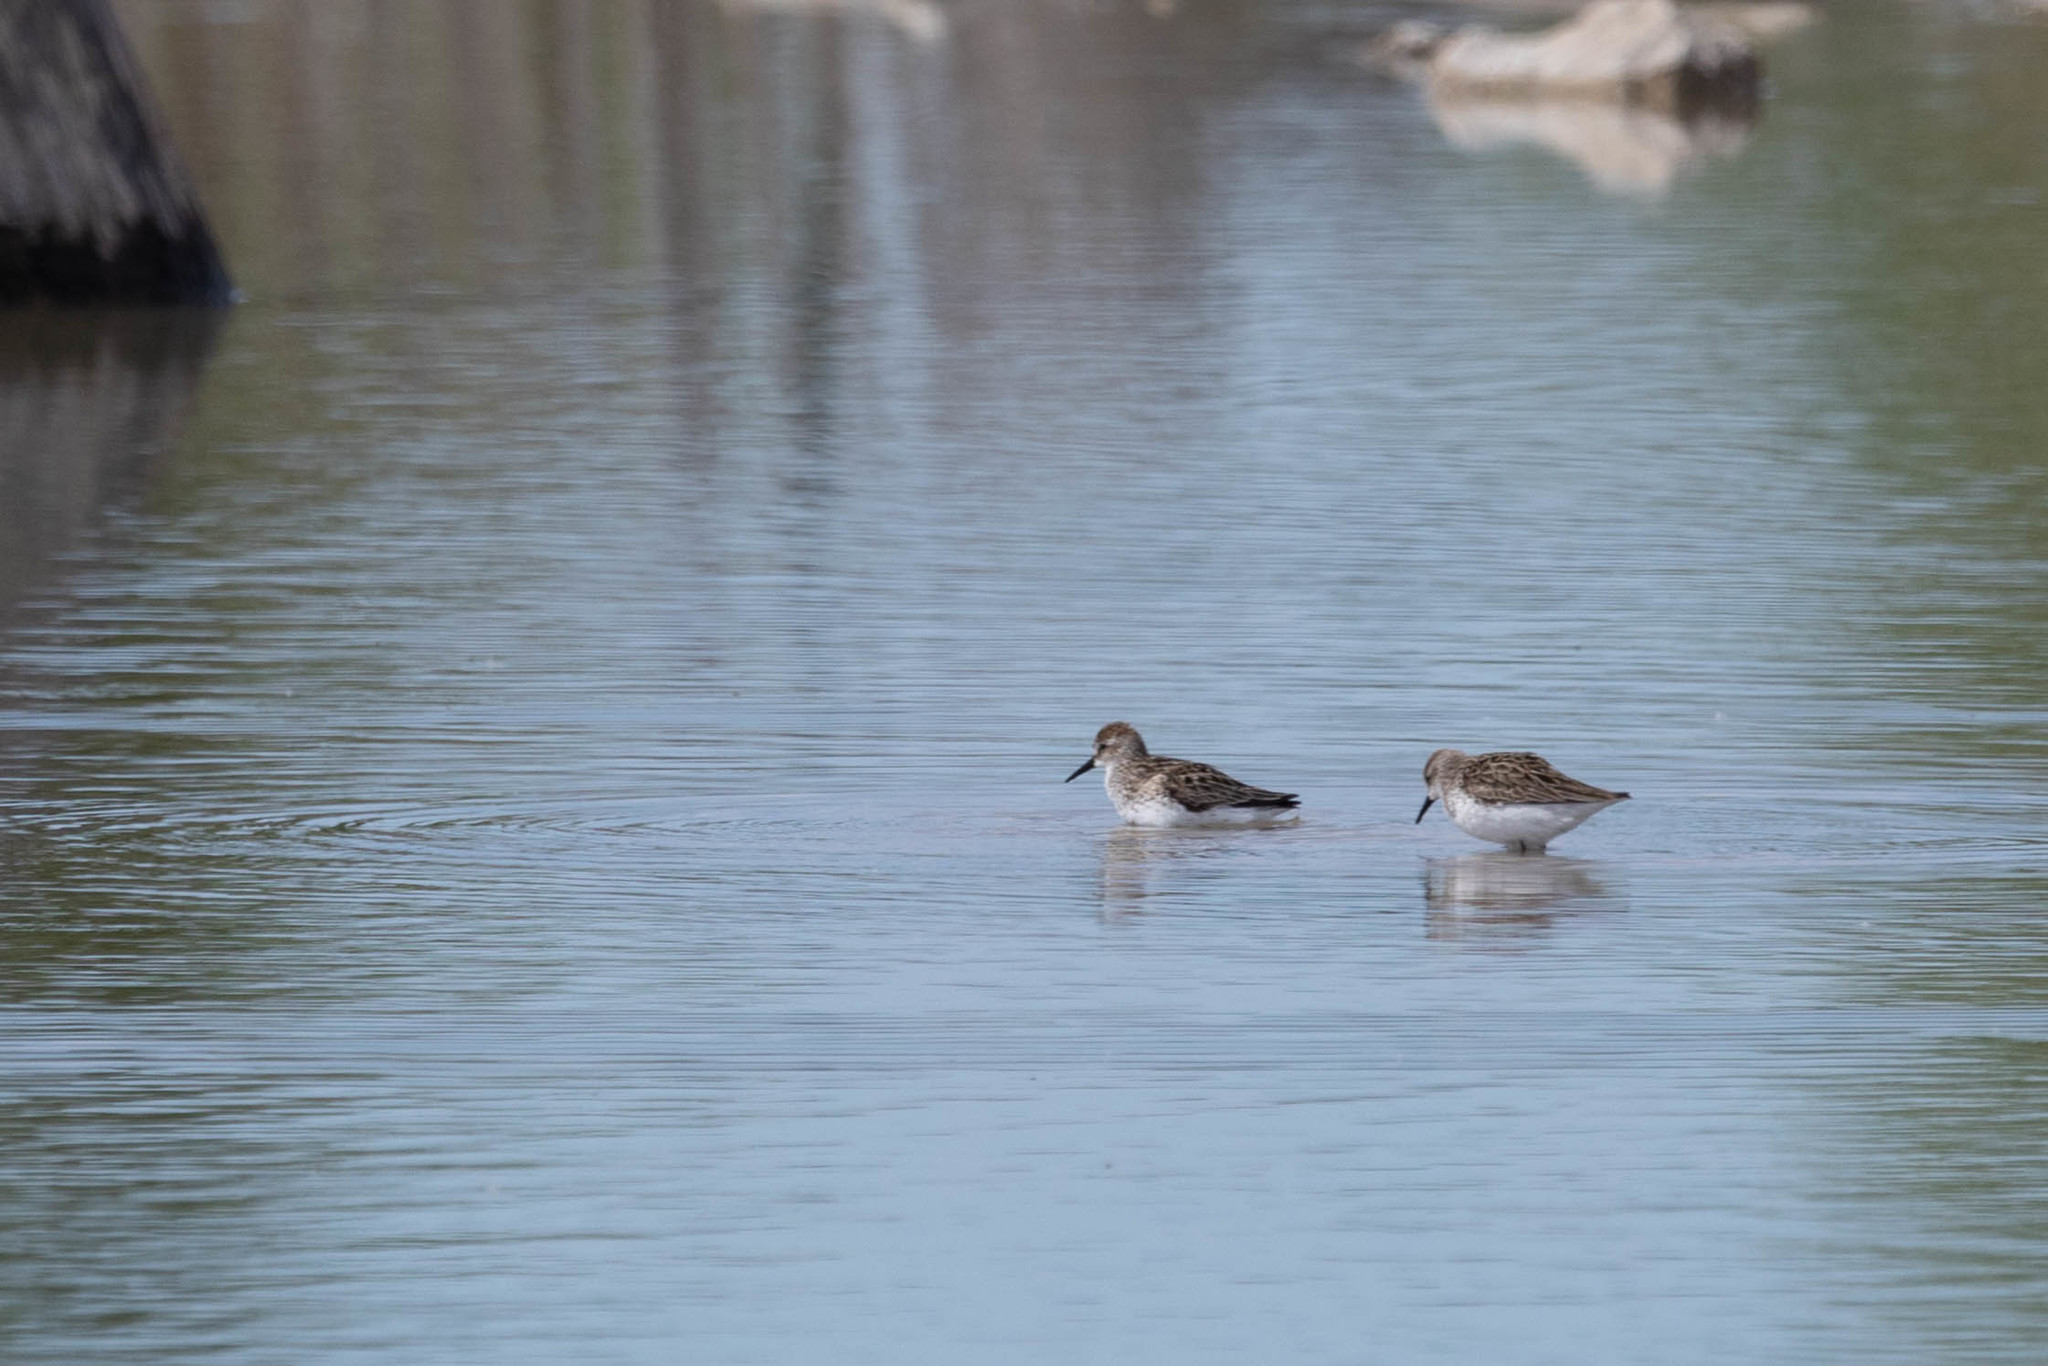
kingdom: Animalia
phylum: Chordata
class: Aves
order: Charadriiformes
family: Scolopacidae
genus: Calidris
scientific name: Calidris pusilla
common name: Semipalmated sandpiper
